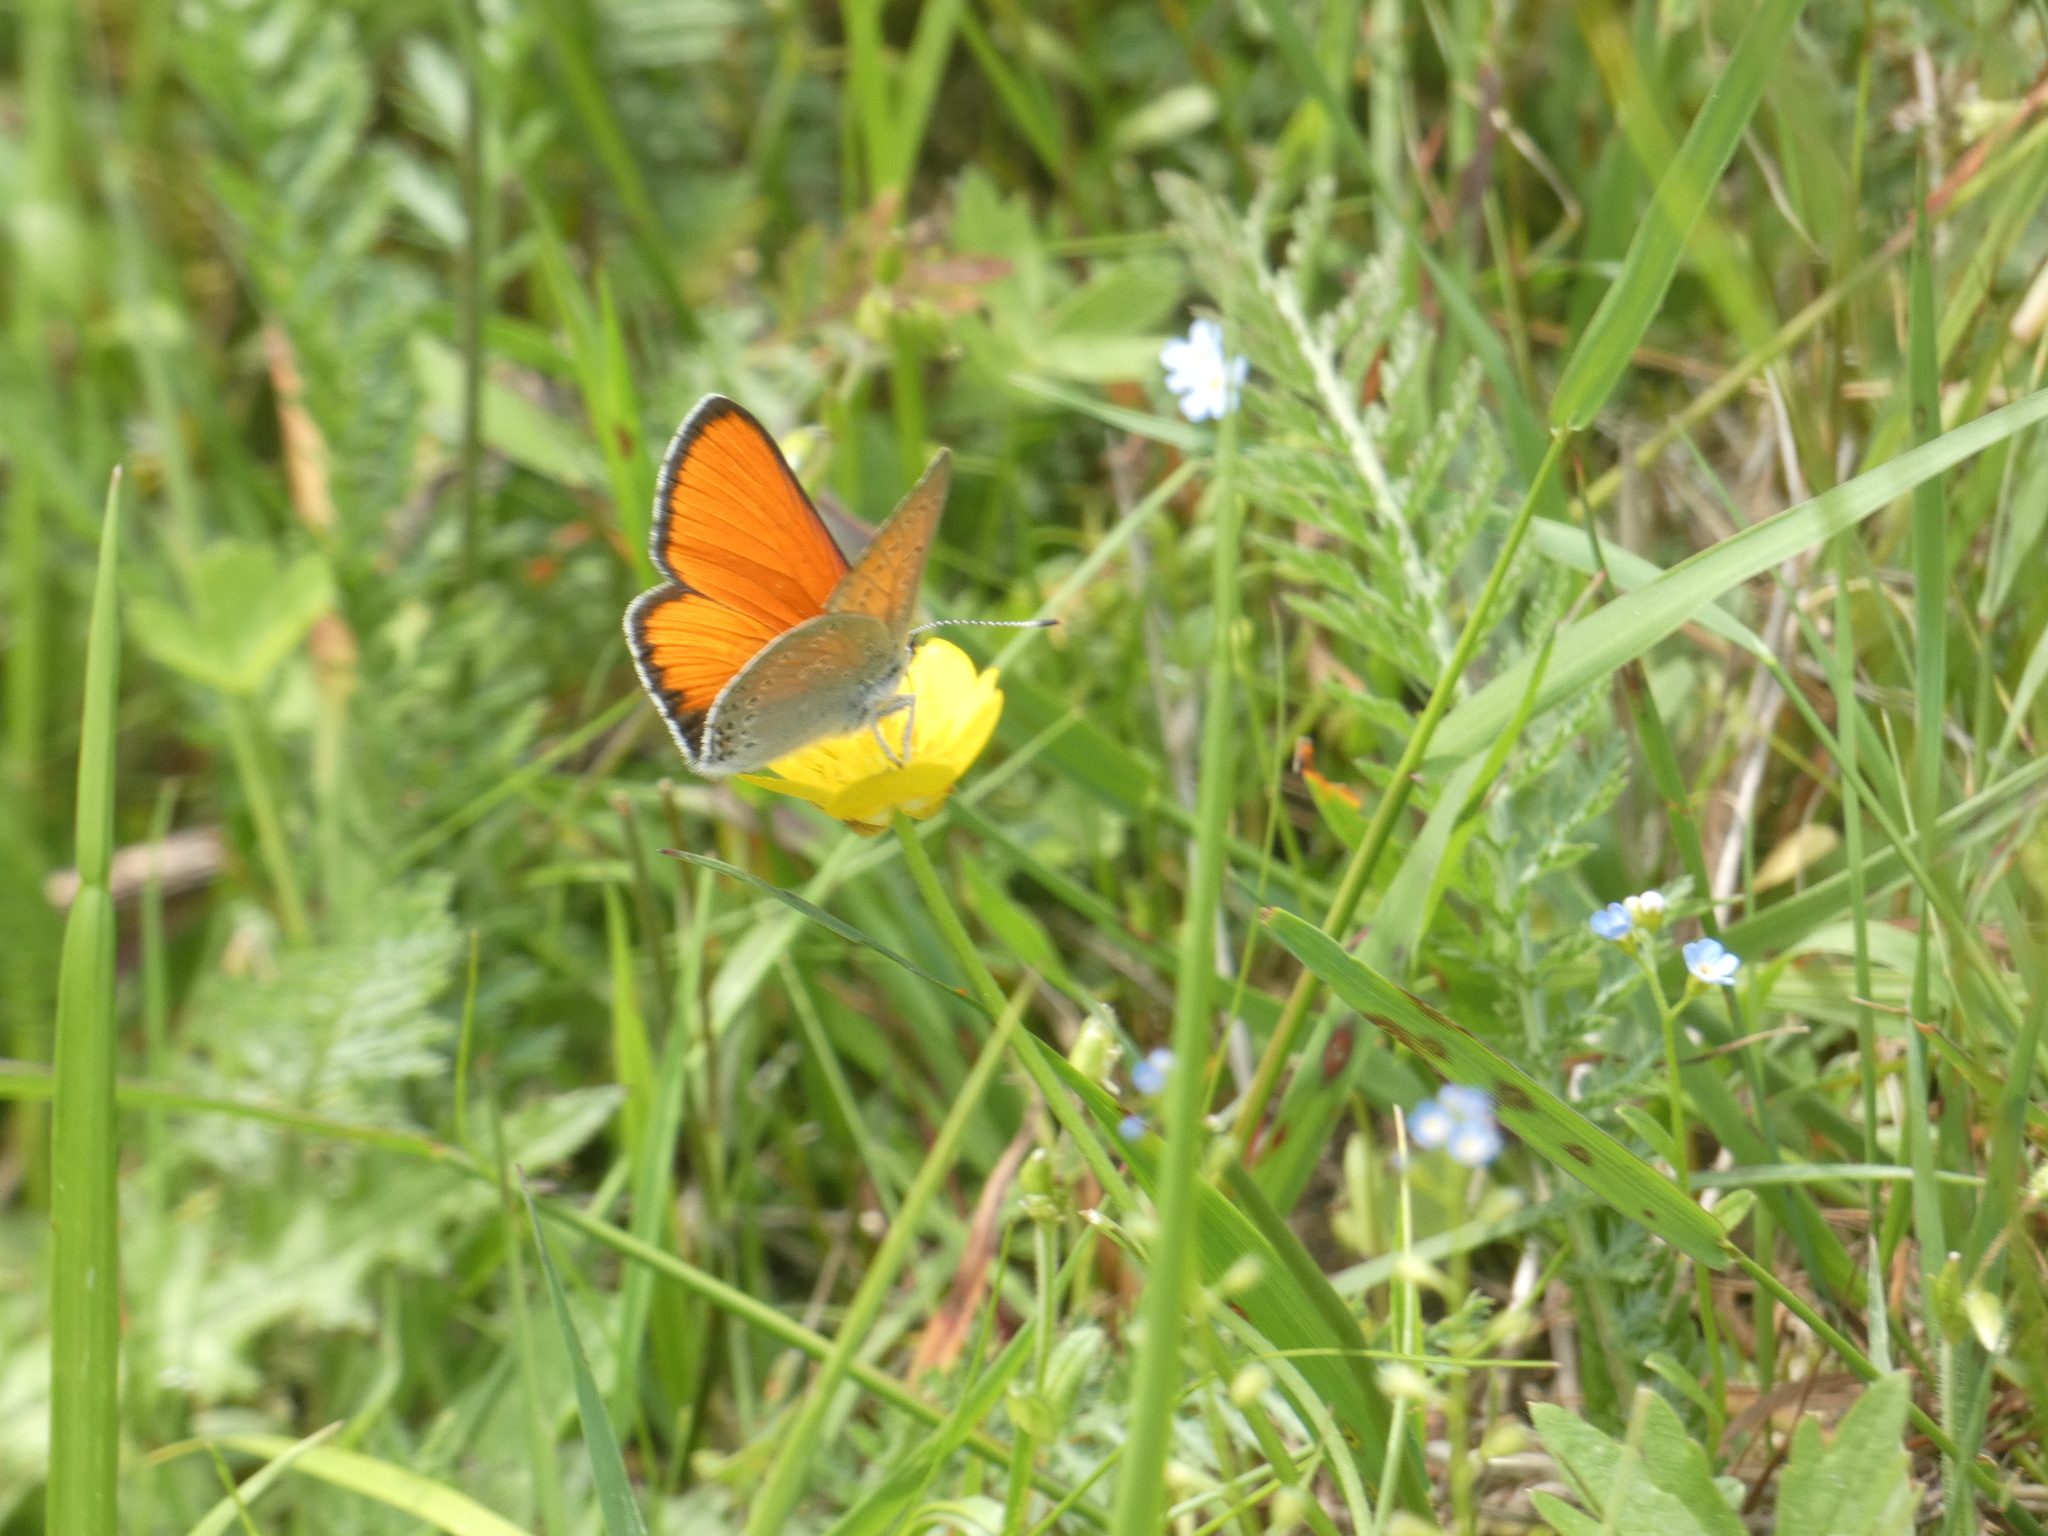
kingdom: Animalia
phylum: Arthropoda
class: Insecta
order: Lepidoptera
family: Lycaenidae
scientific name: Lycaenidae
